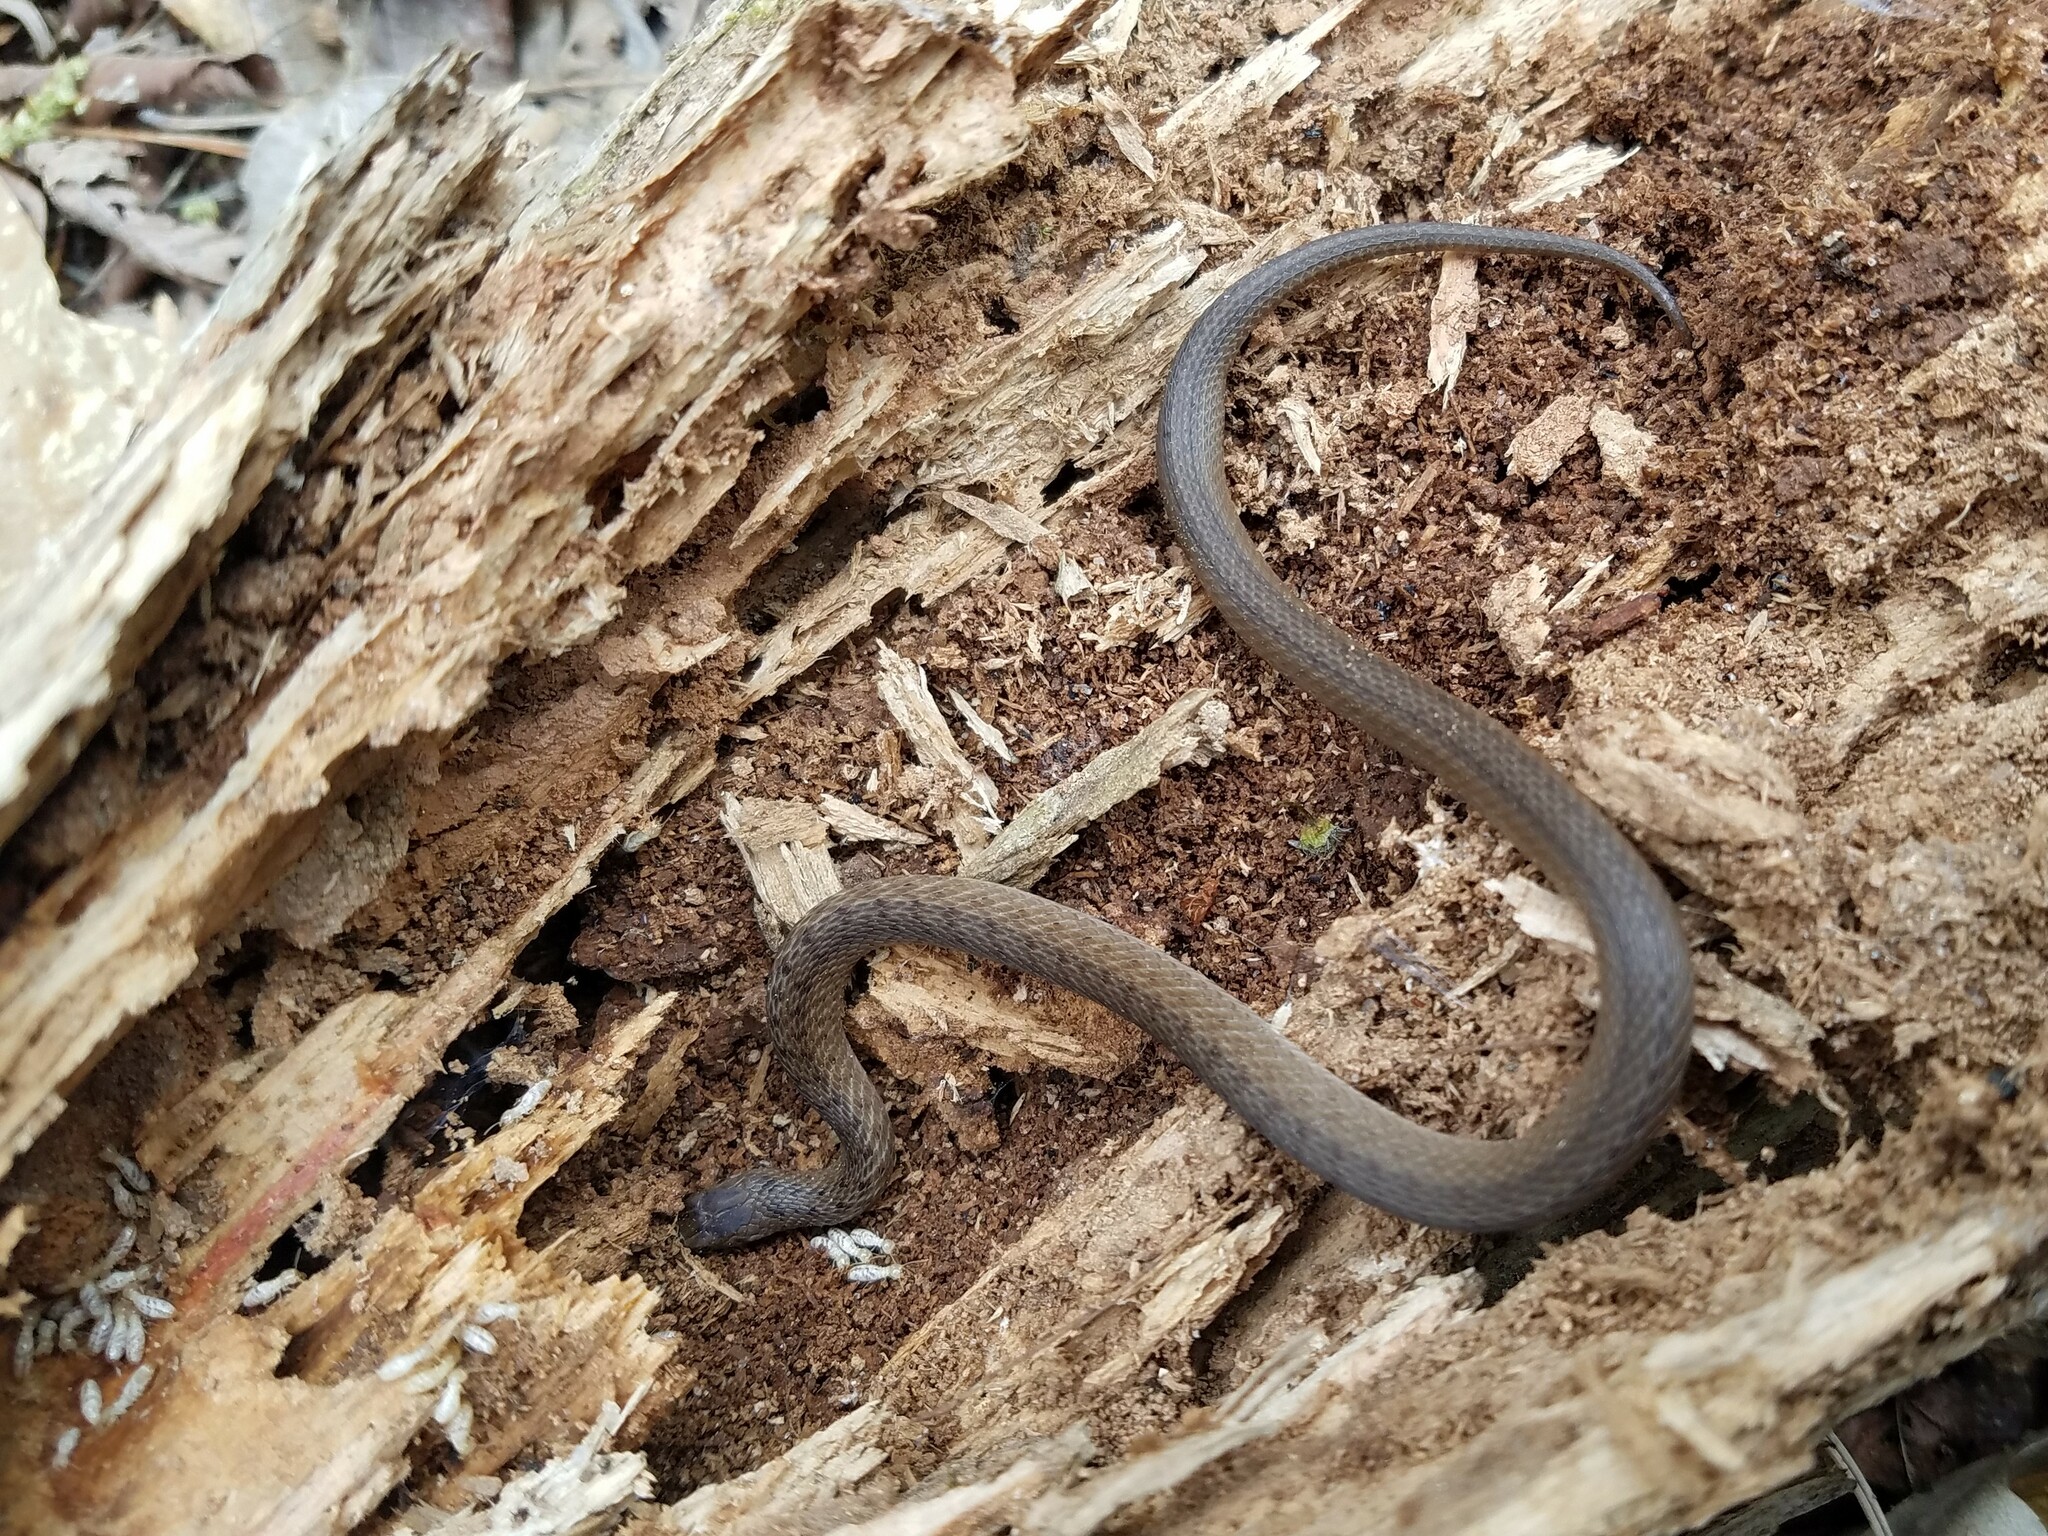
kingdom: Animalia
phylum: Chordata
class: Squamata
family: Colubridae
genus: Storeria
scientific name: Storeria dekayi
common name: (dekay’s) brown snake
